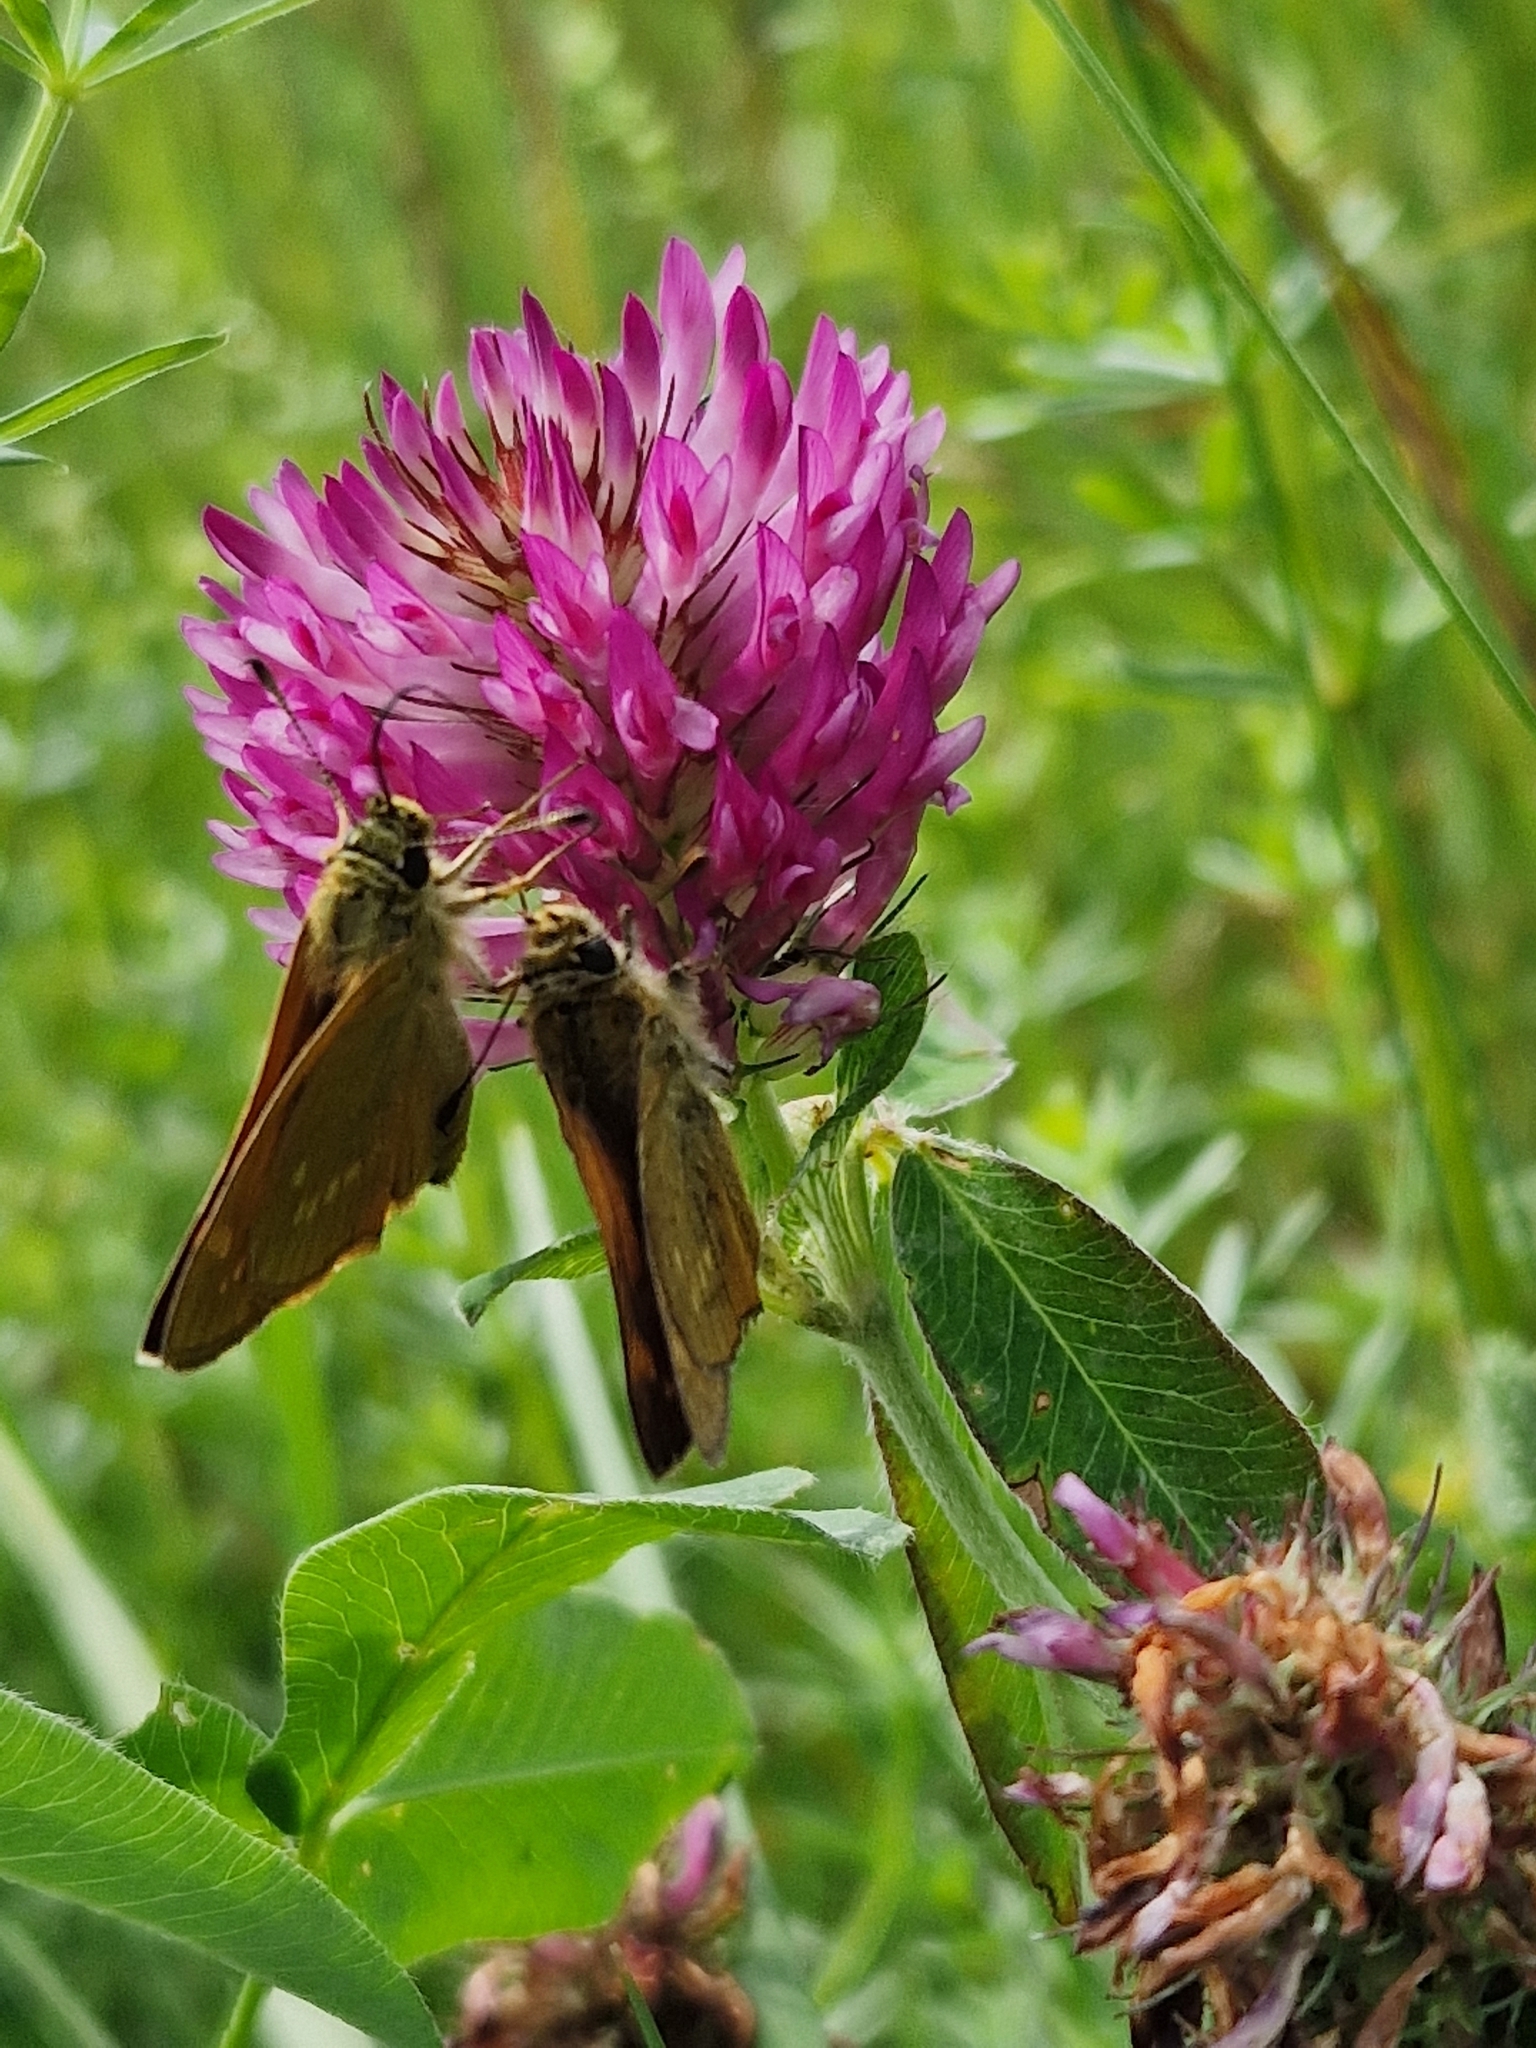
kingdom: Animalia
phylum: Arthropoda
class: Insecta
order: Lepidoptera
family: Hesperiidae
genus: Ochlodes
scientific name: Ochlodes venata
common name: Large skipper
